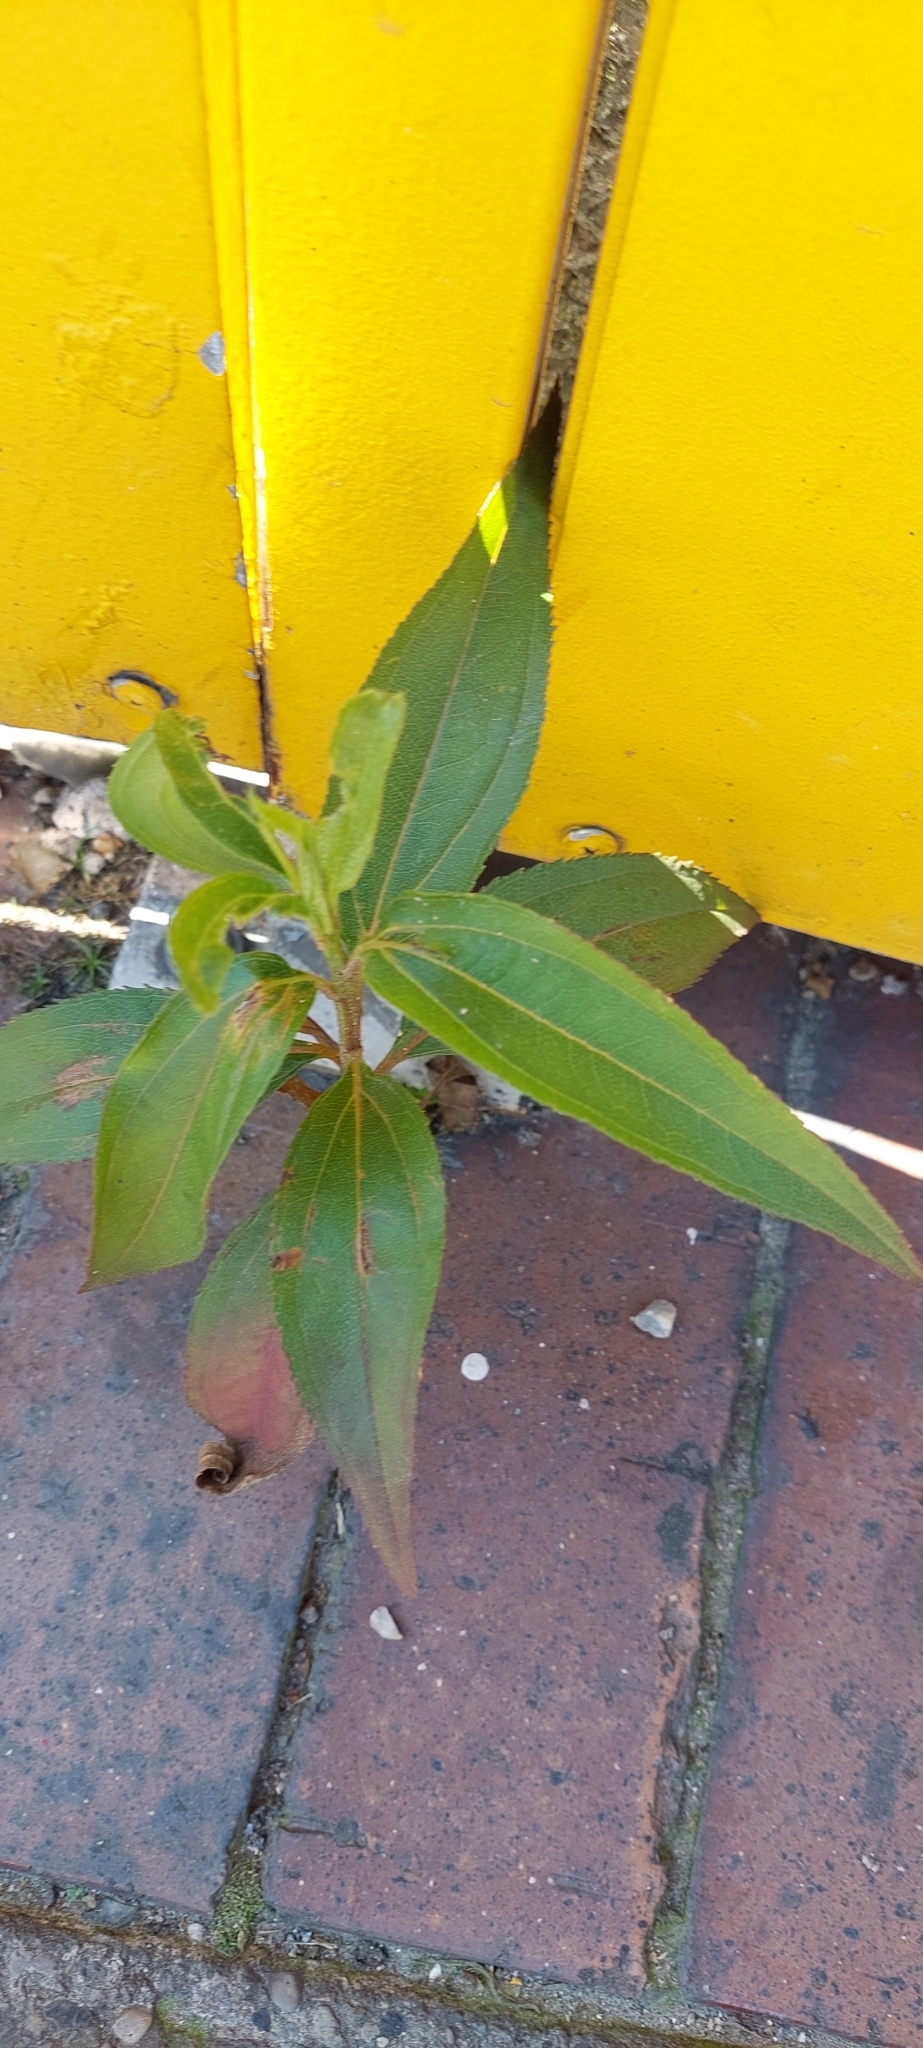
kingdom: Plantae
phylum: Tracheophyta
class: Magnoliopsida
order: Asterales
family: Asteraceae
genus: Baccharis
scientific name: Baccharis latifolia
